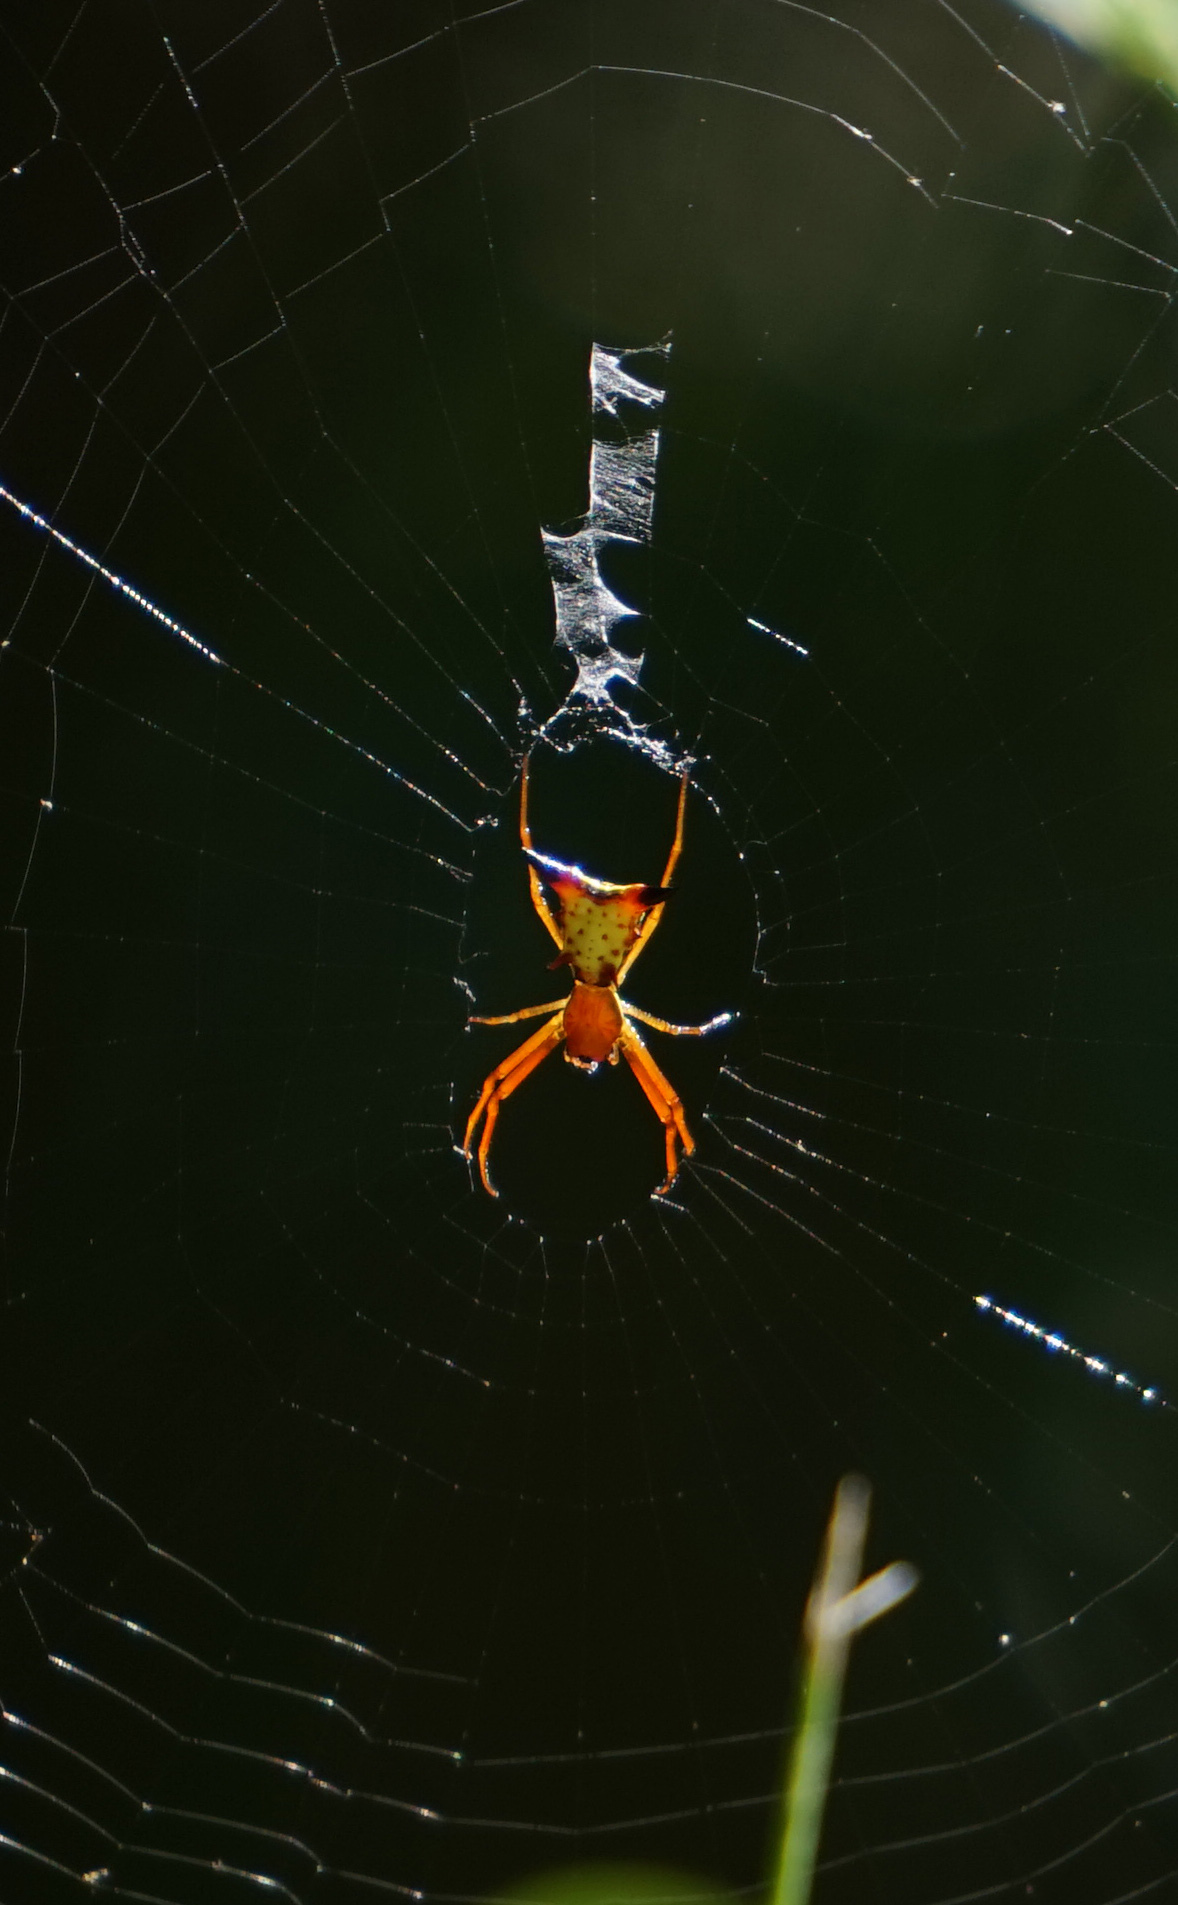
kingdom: Animalia
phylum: Arthropoda
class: Arachnida
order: Araneae
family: Araneidae
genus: Micrathena
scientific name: Micrathena sagittata
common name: Orb weavers
